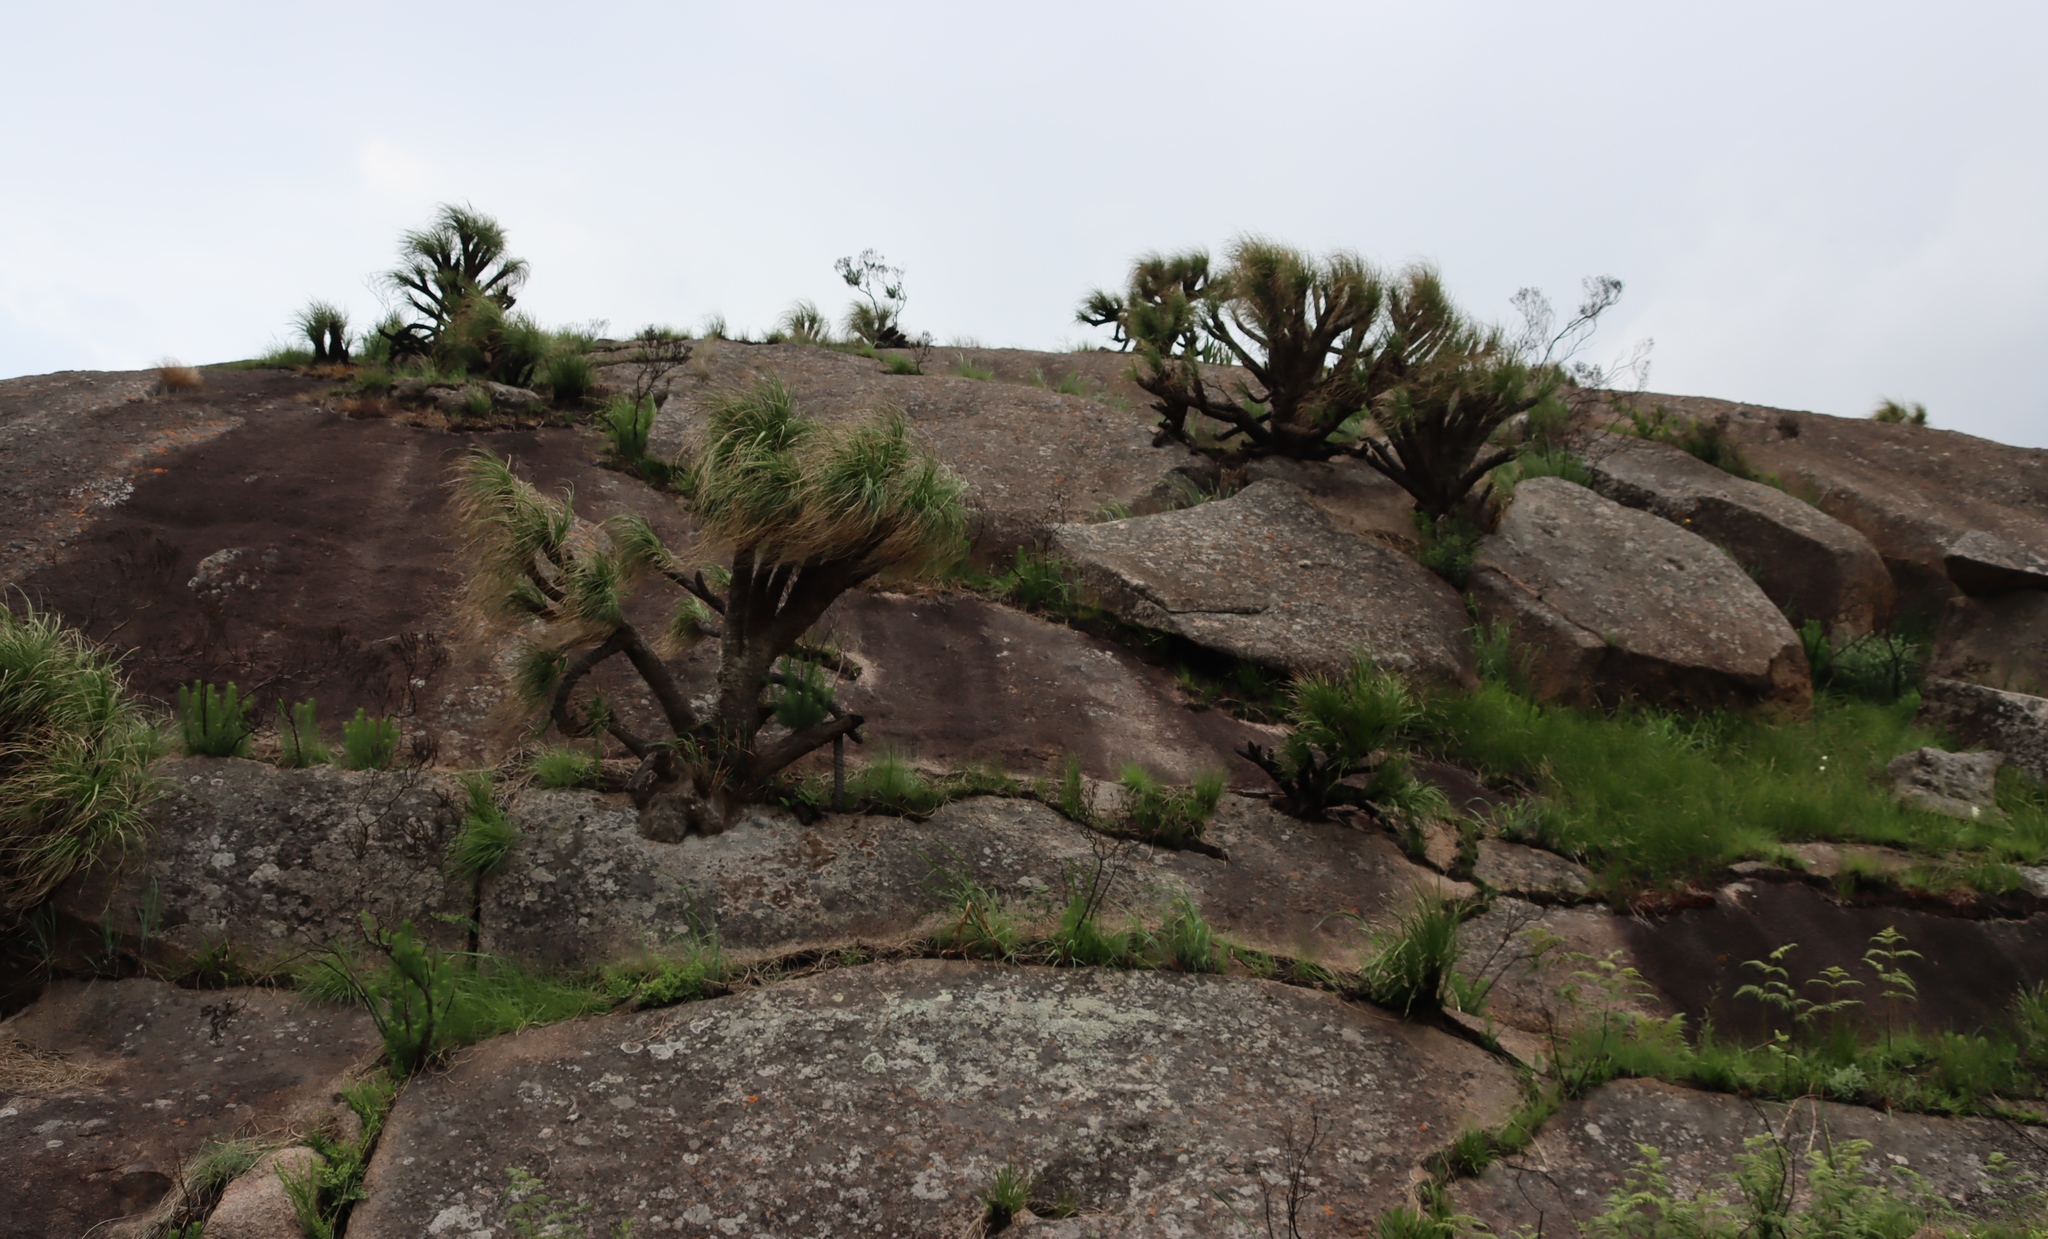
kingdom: Plantae
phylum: Tracheophyta
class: Liliopsida
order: Pandanales
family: Velloziaceae
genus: Xerophyta
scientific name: Xerophyta retinervis
